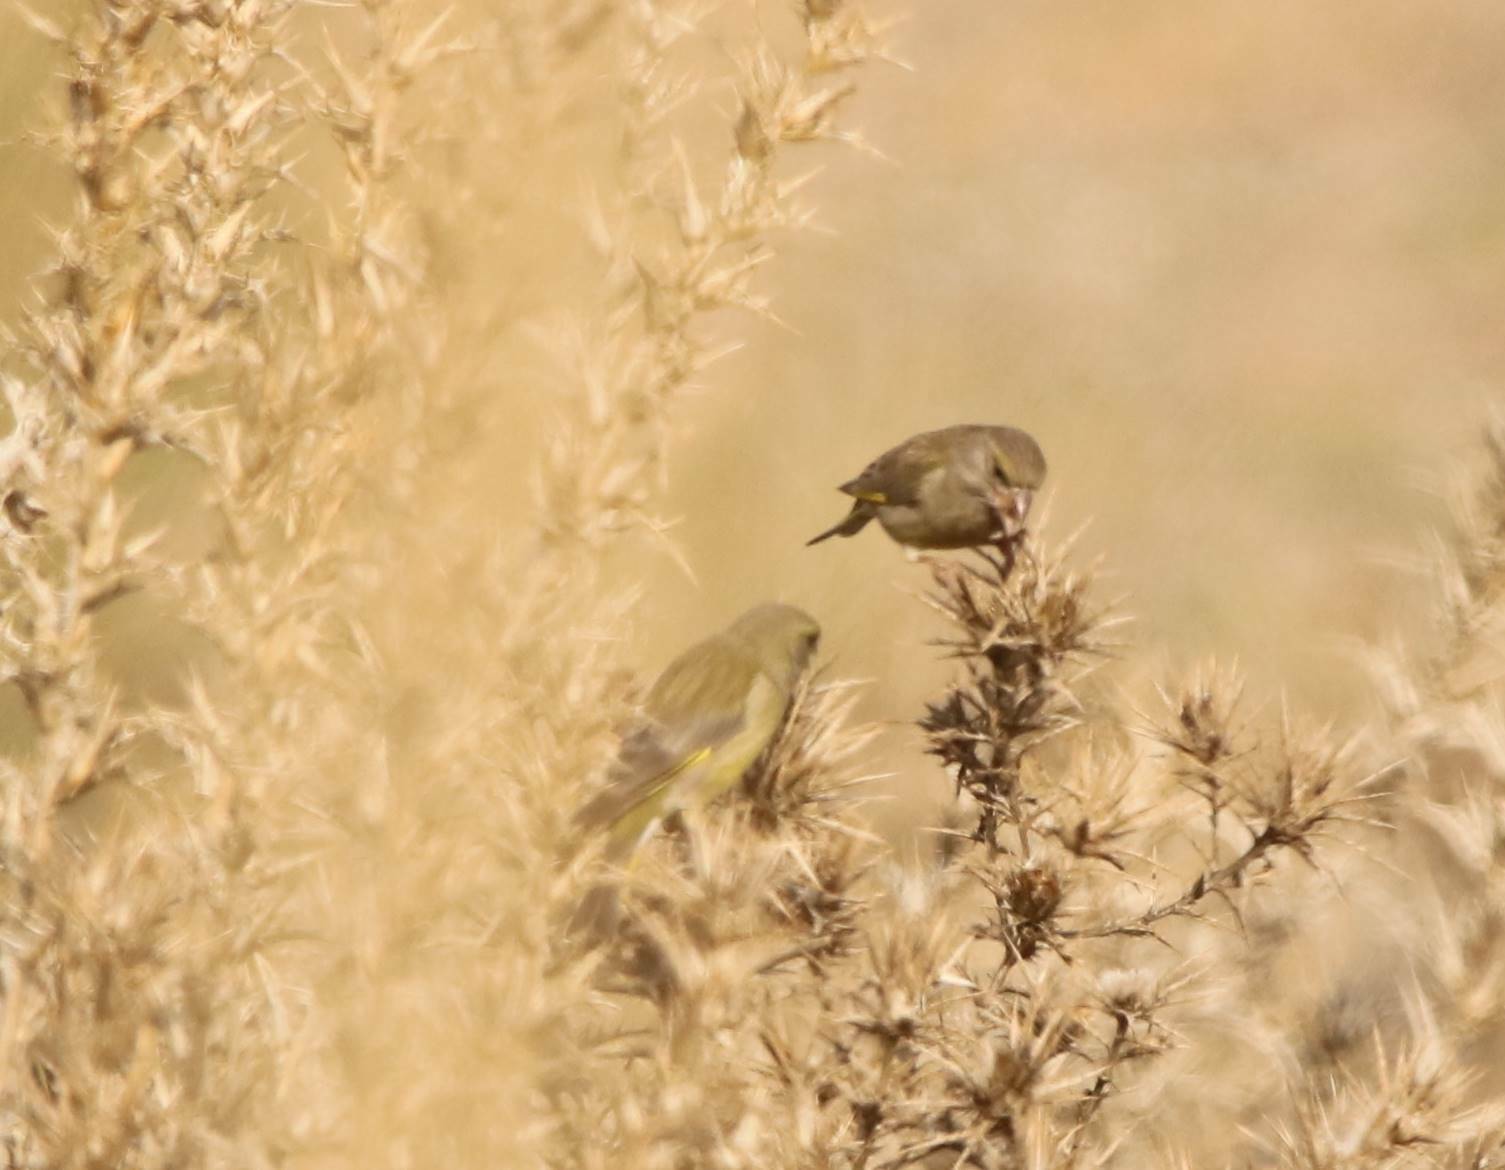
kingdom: Plantae
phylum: Tracheophyta
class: Liliopsida
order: Poales
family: Poaceae
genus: Chloris
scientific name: Chloris chloris
